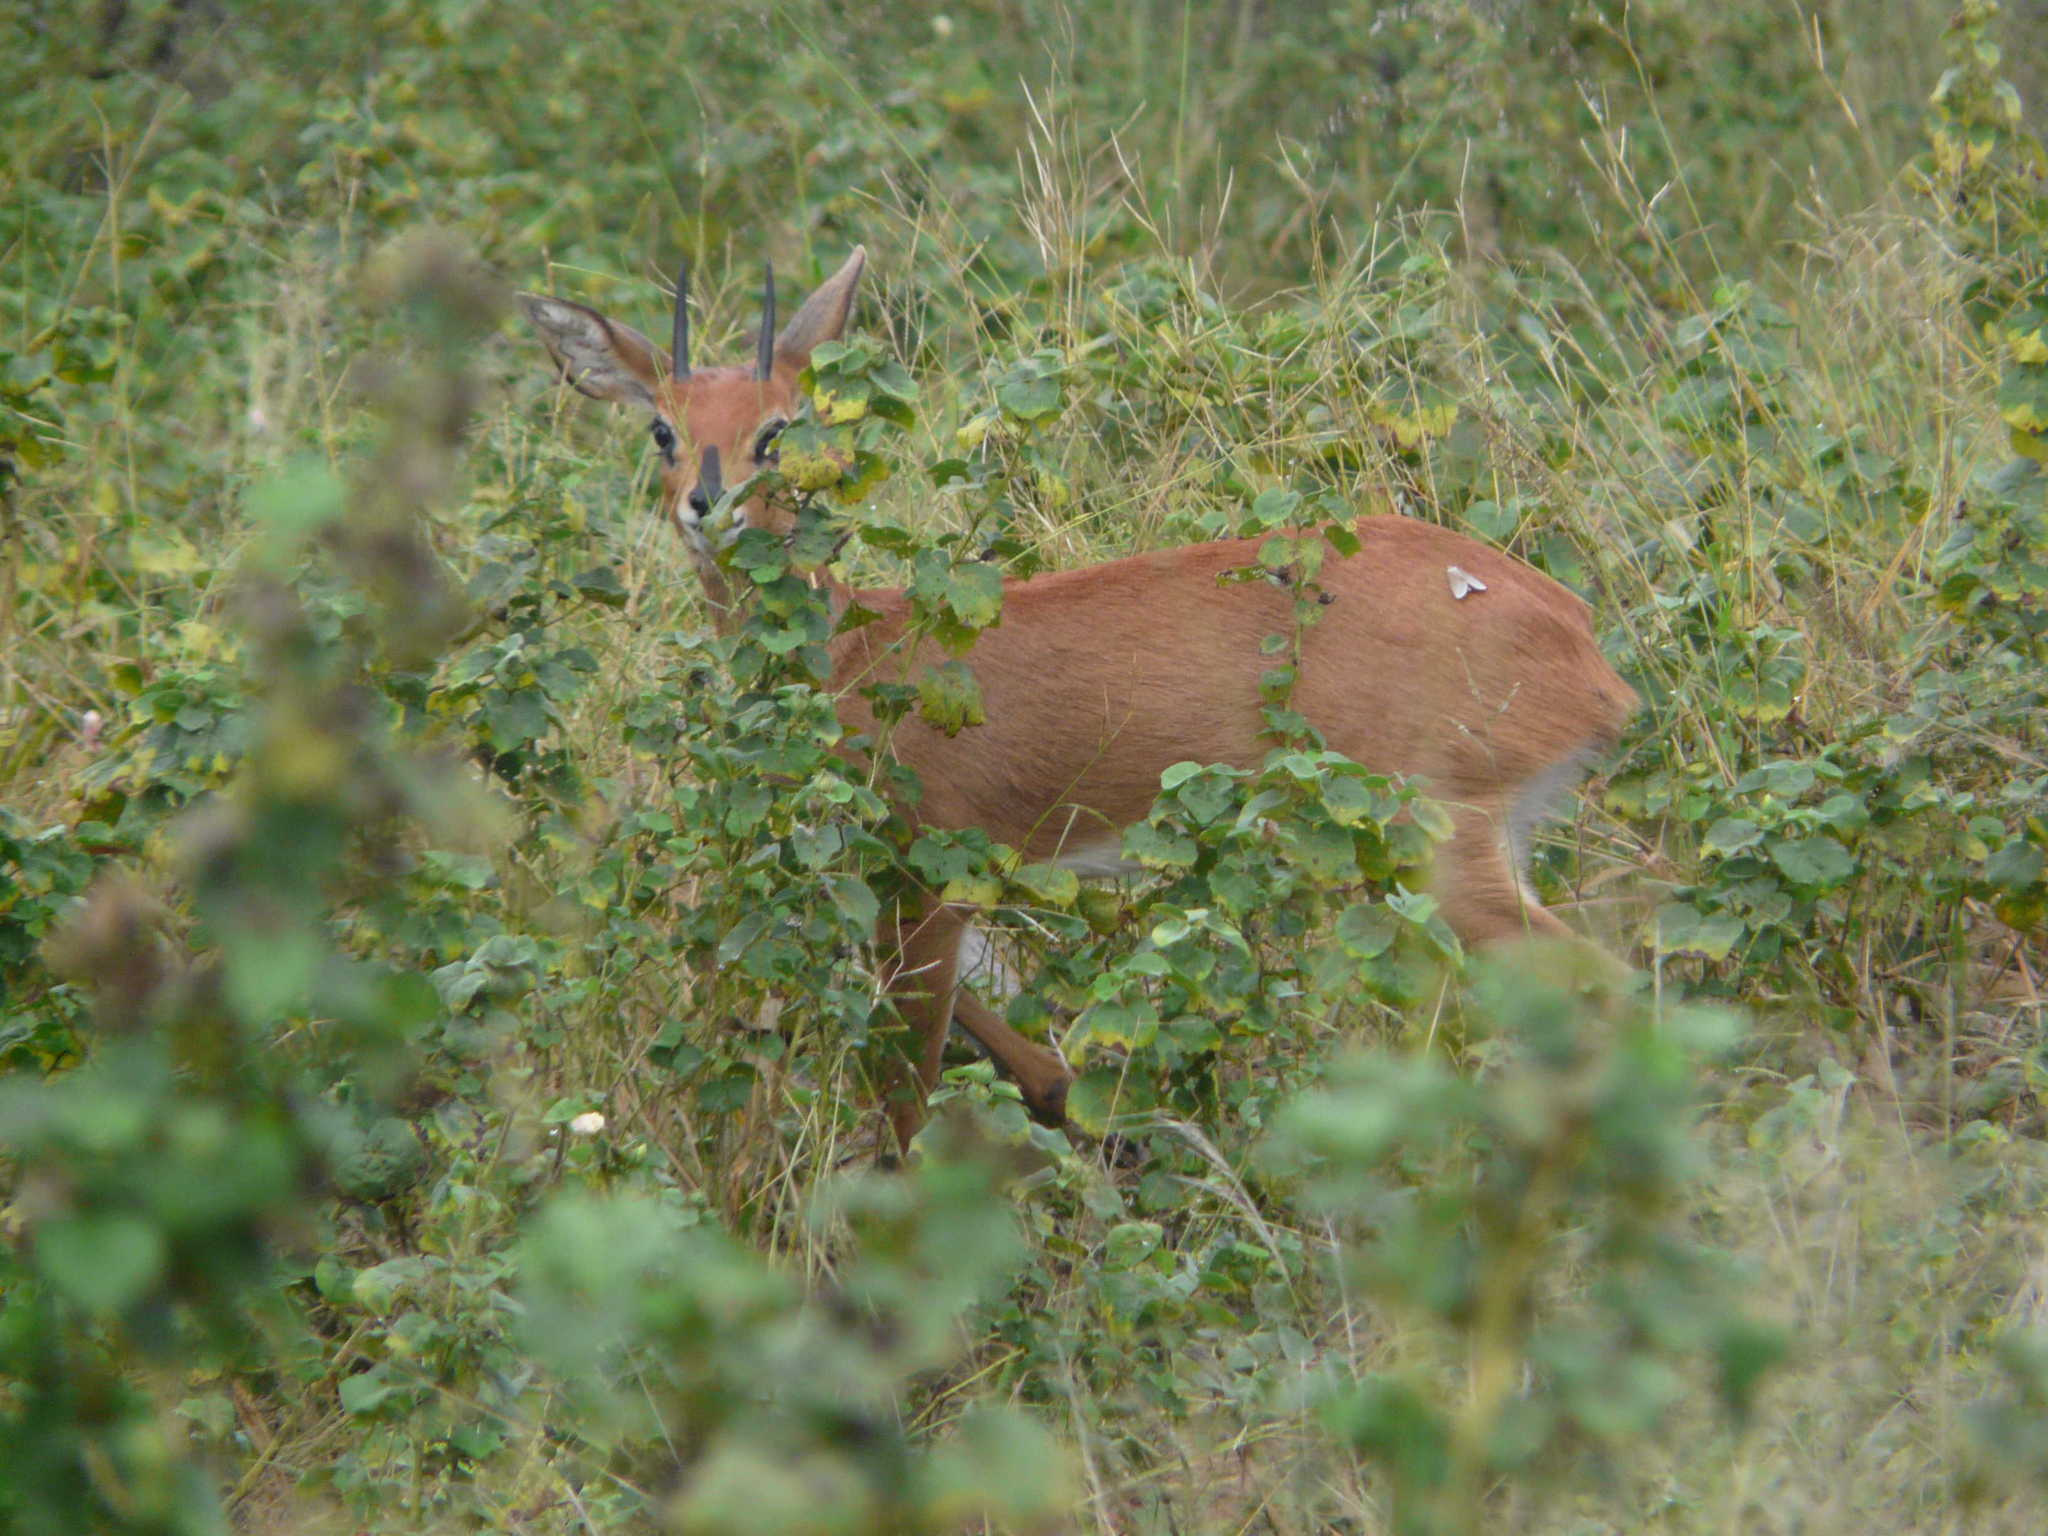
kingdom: Animalia
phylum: Chordata
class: Mammalia
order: Artiodactyla
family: Bovidae
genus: Raphicerus
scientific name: Raphicerus campestris
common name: Steenbok
